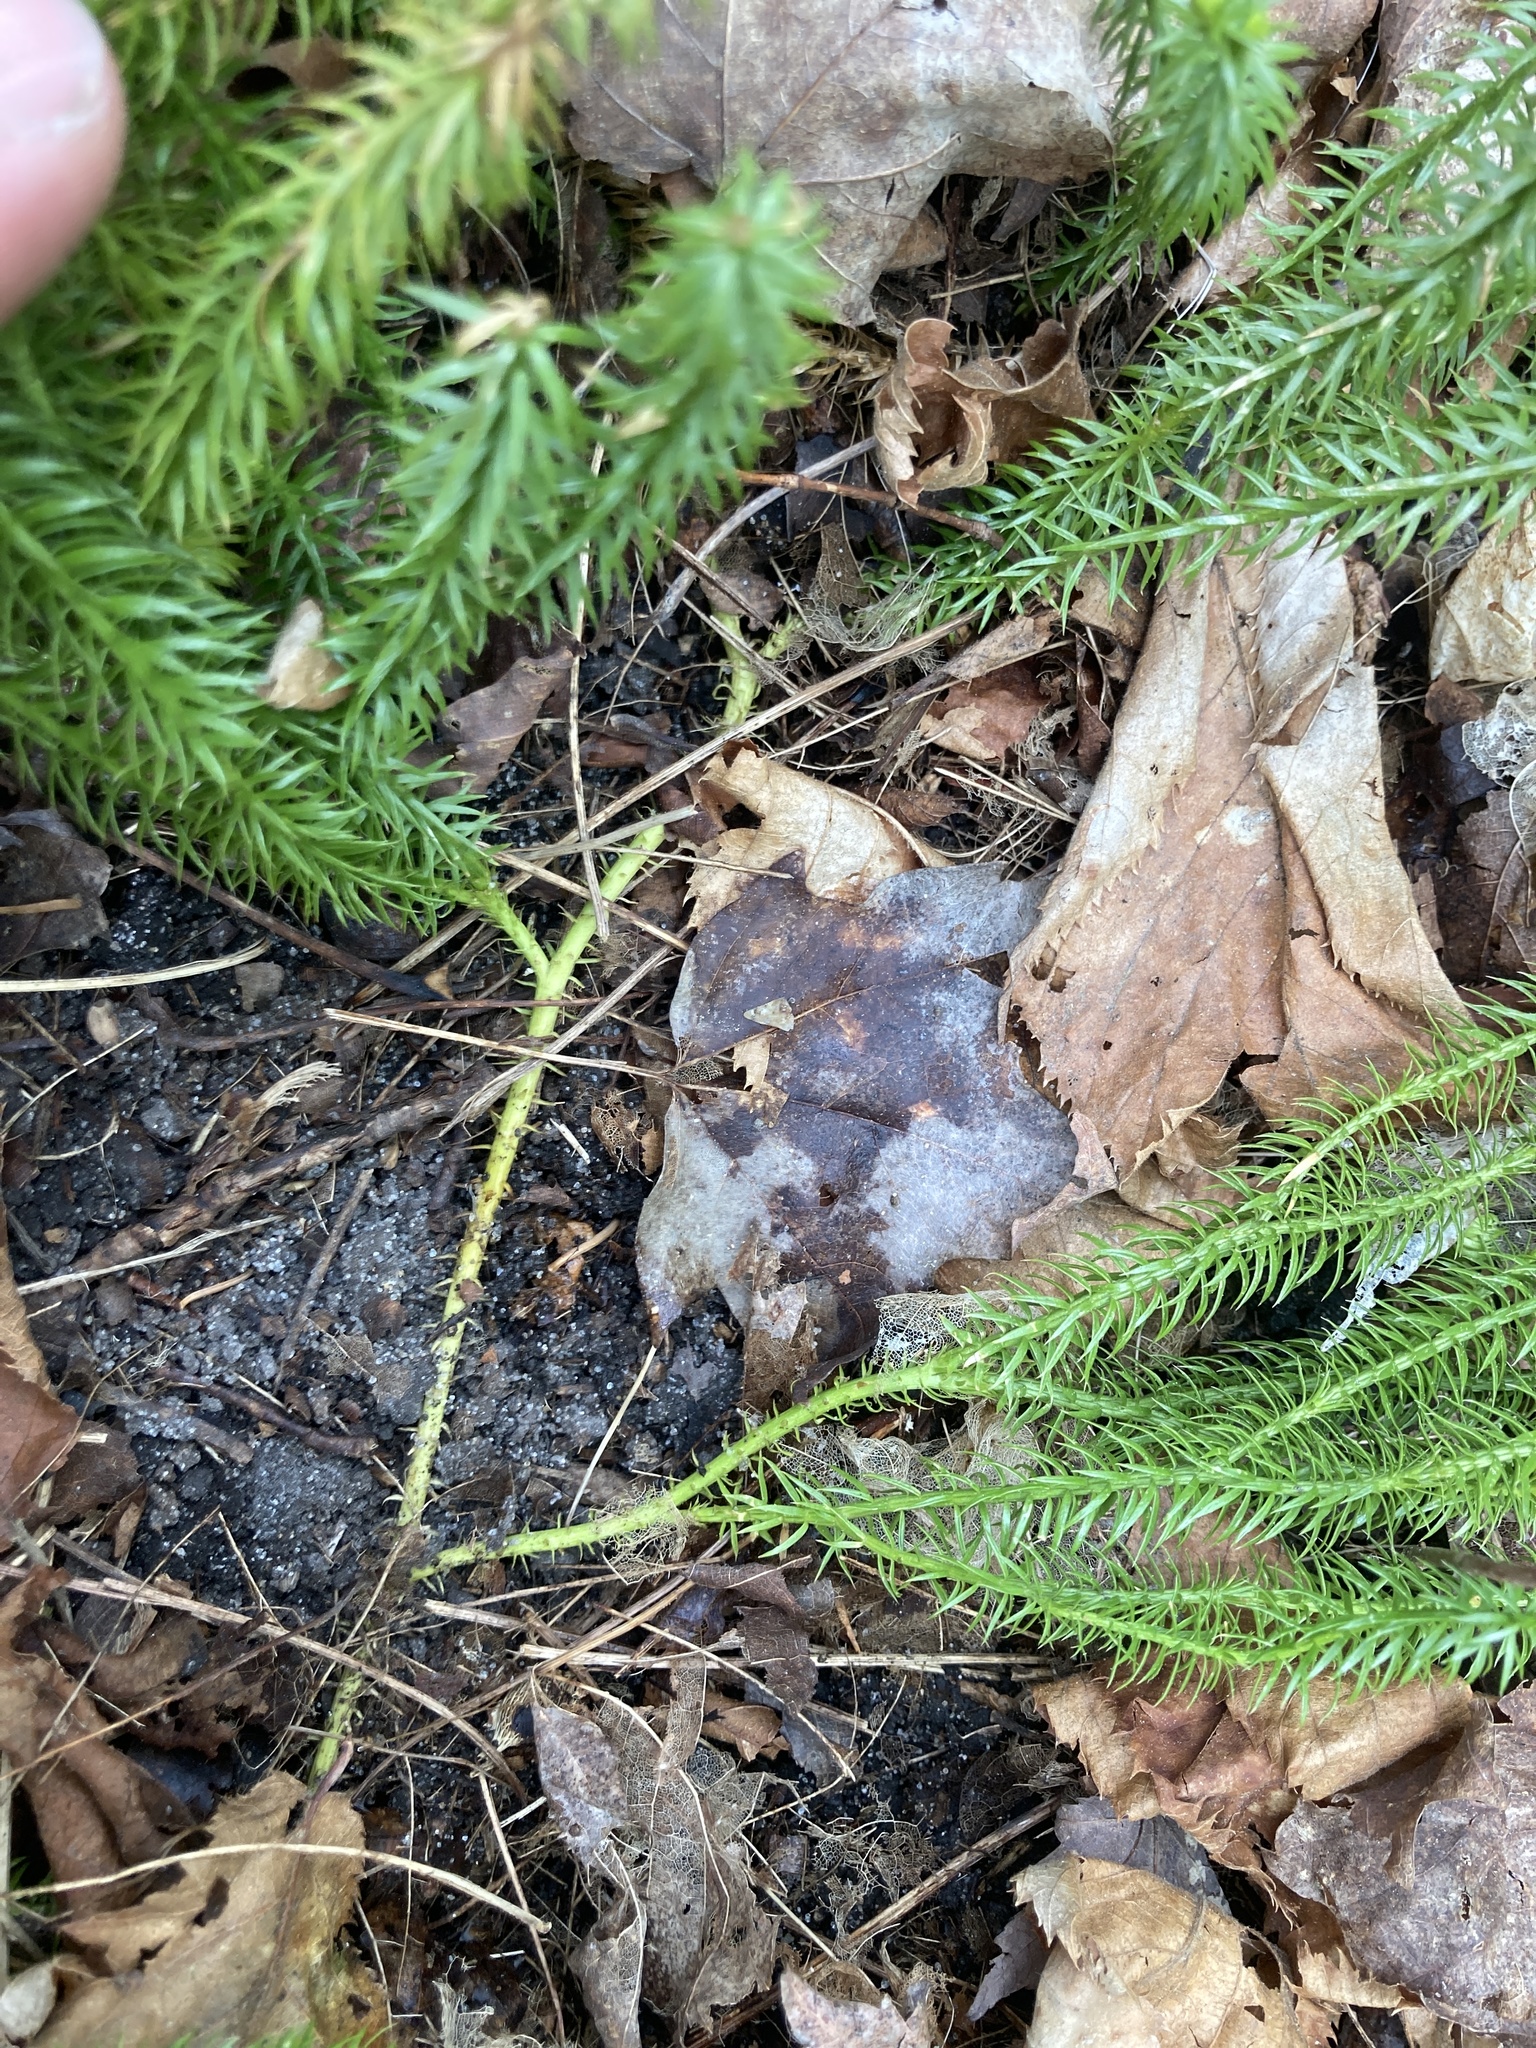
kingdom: Plantae
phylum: Tracheophyta
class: Lycopodiopsida
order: Lycopodiales
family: Lycopodiaceae
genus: Spinulum
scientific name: Spinulum annotinum
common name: Interrupted club-moss
